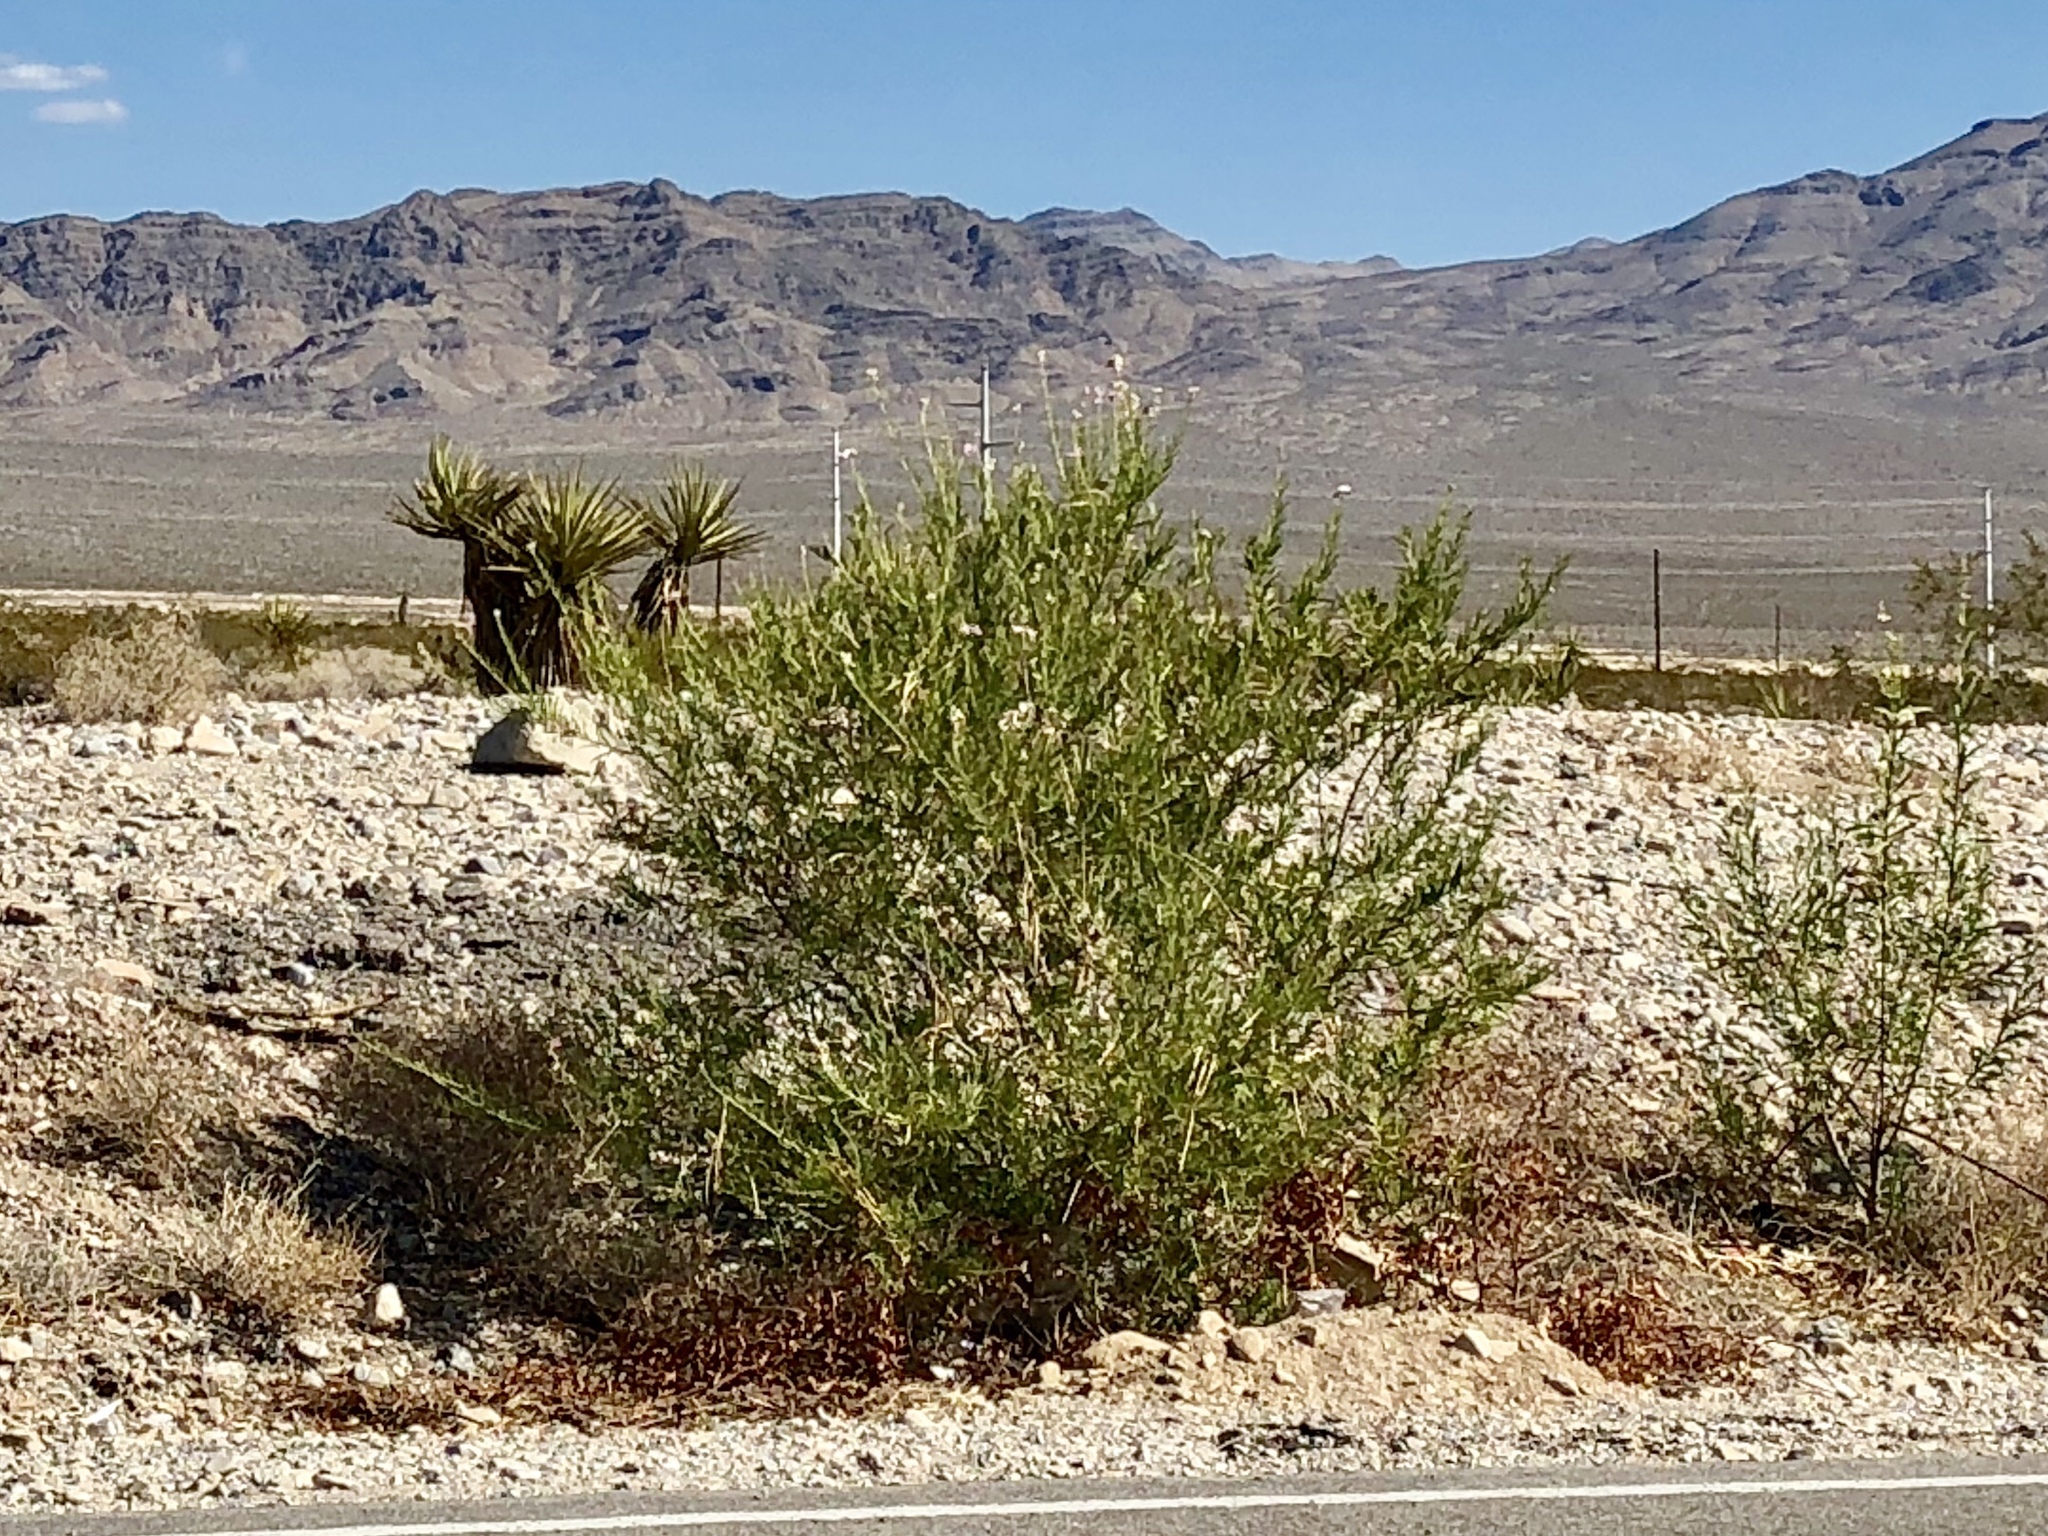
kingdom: Plantae
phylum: Tracheophyta
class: Magnoliopsida
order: Lamiales
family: Bignoniaceae
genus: Chilopsis
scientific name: Chilopsis linearis
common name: Desert-willow
